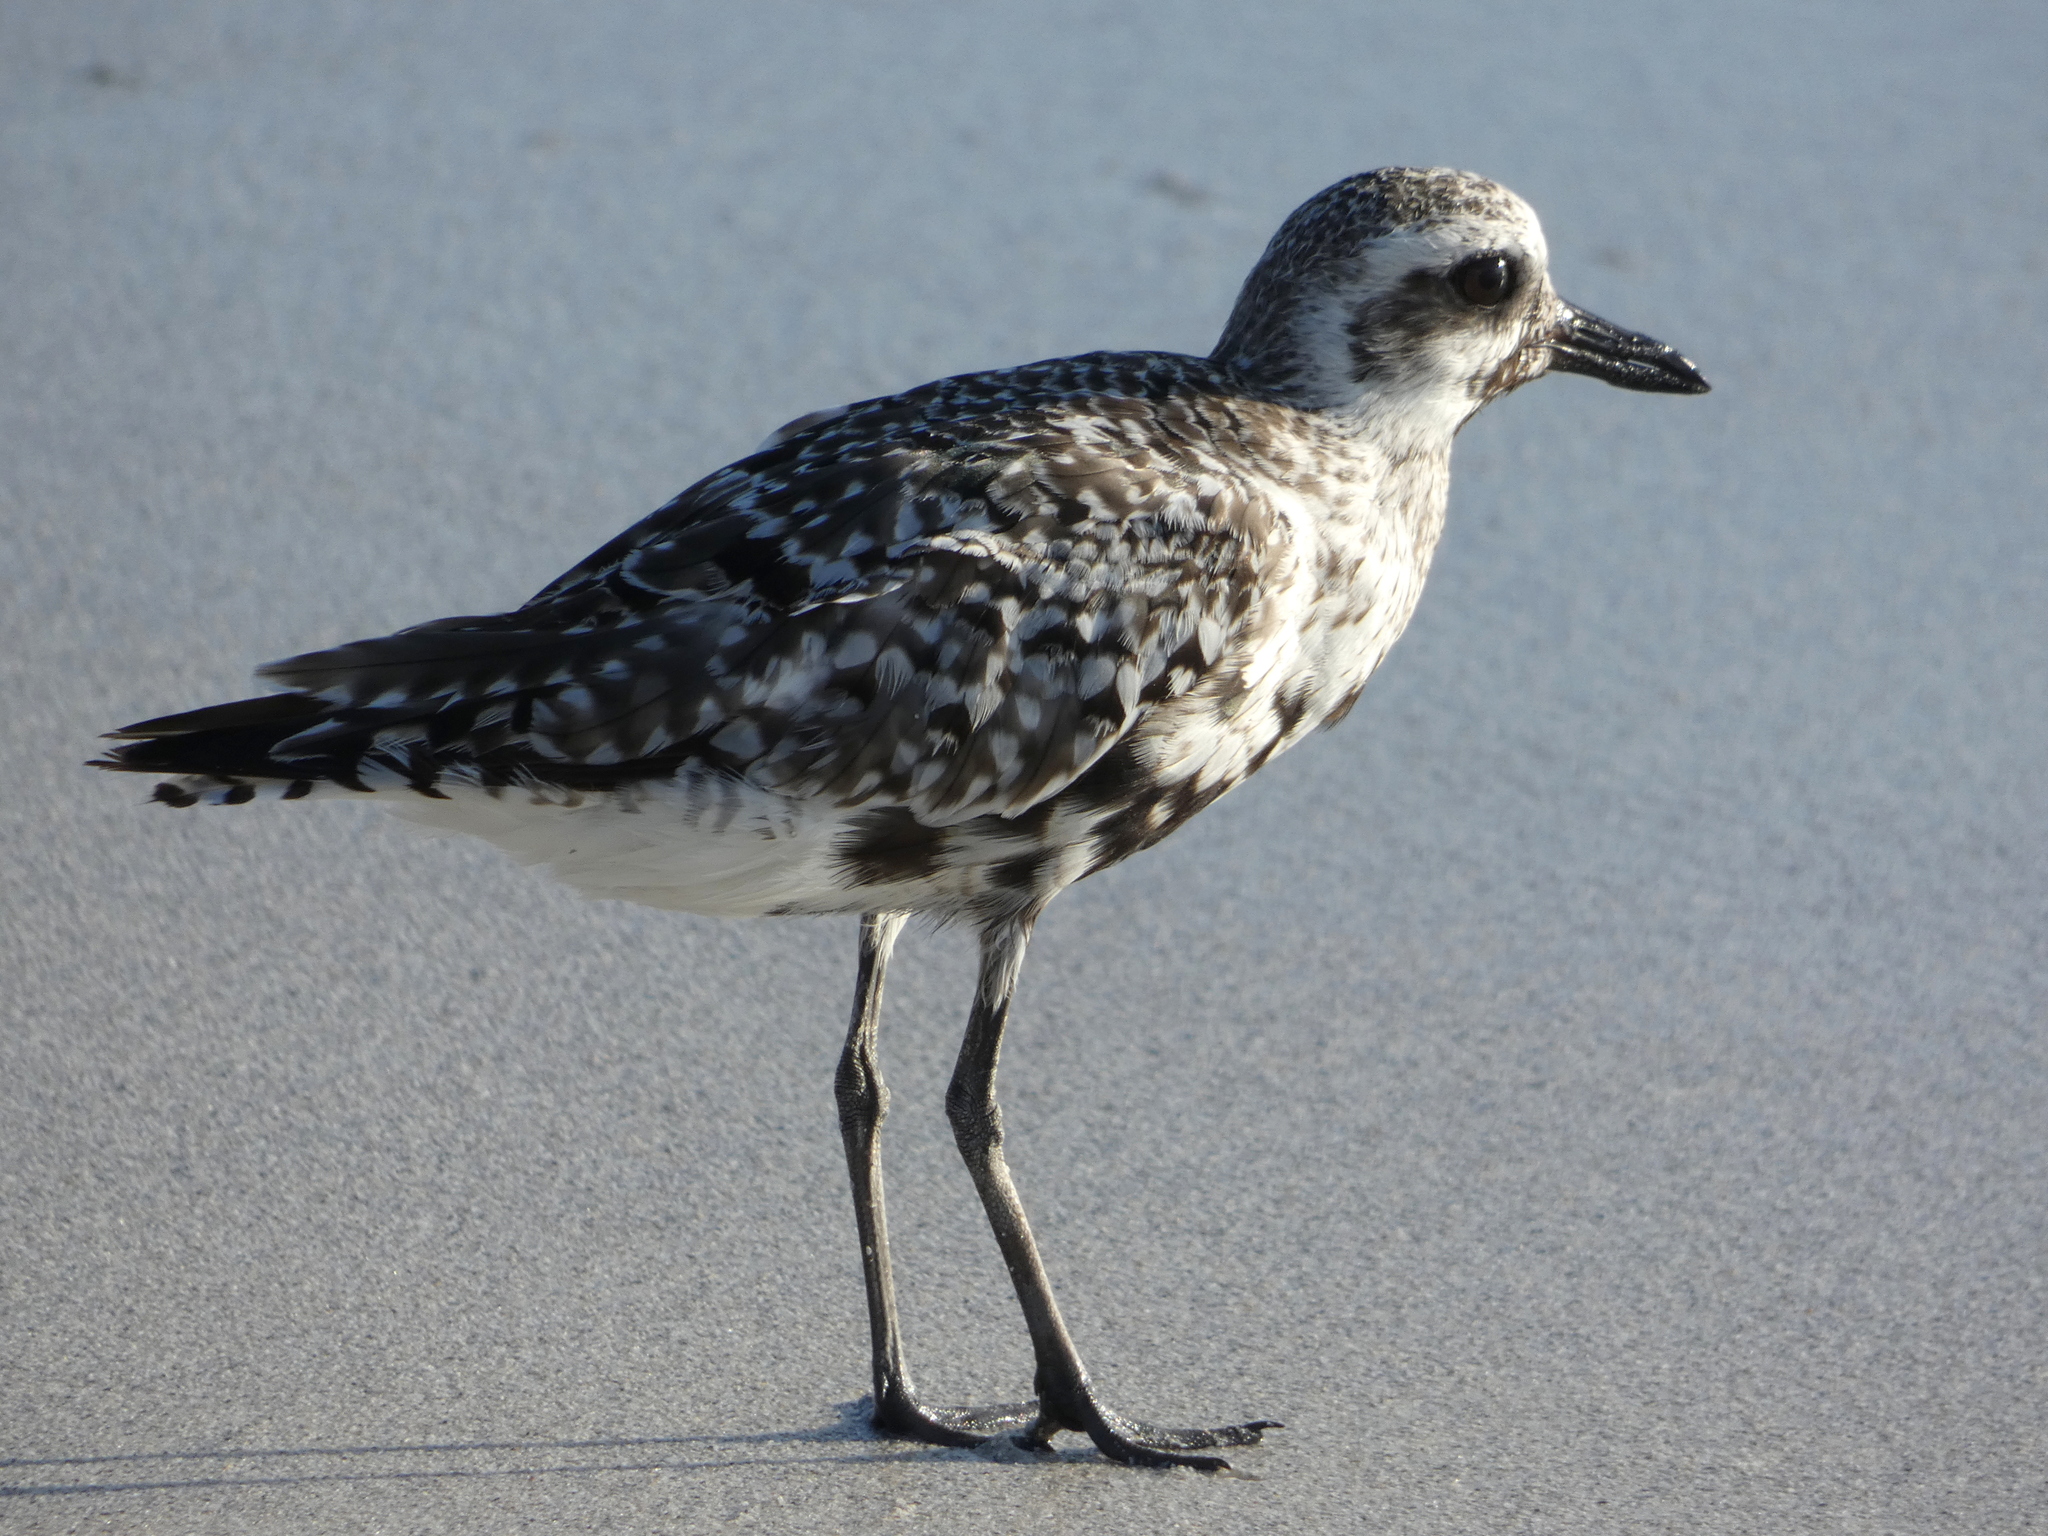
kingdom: Animalia
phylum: Chordata
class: Aves
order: Charadriiformes
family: Charadriidae
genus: Pluvialis
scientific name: Pluvialis squatarola
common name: Grey plover
